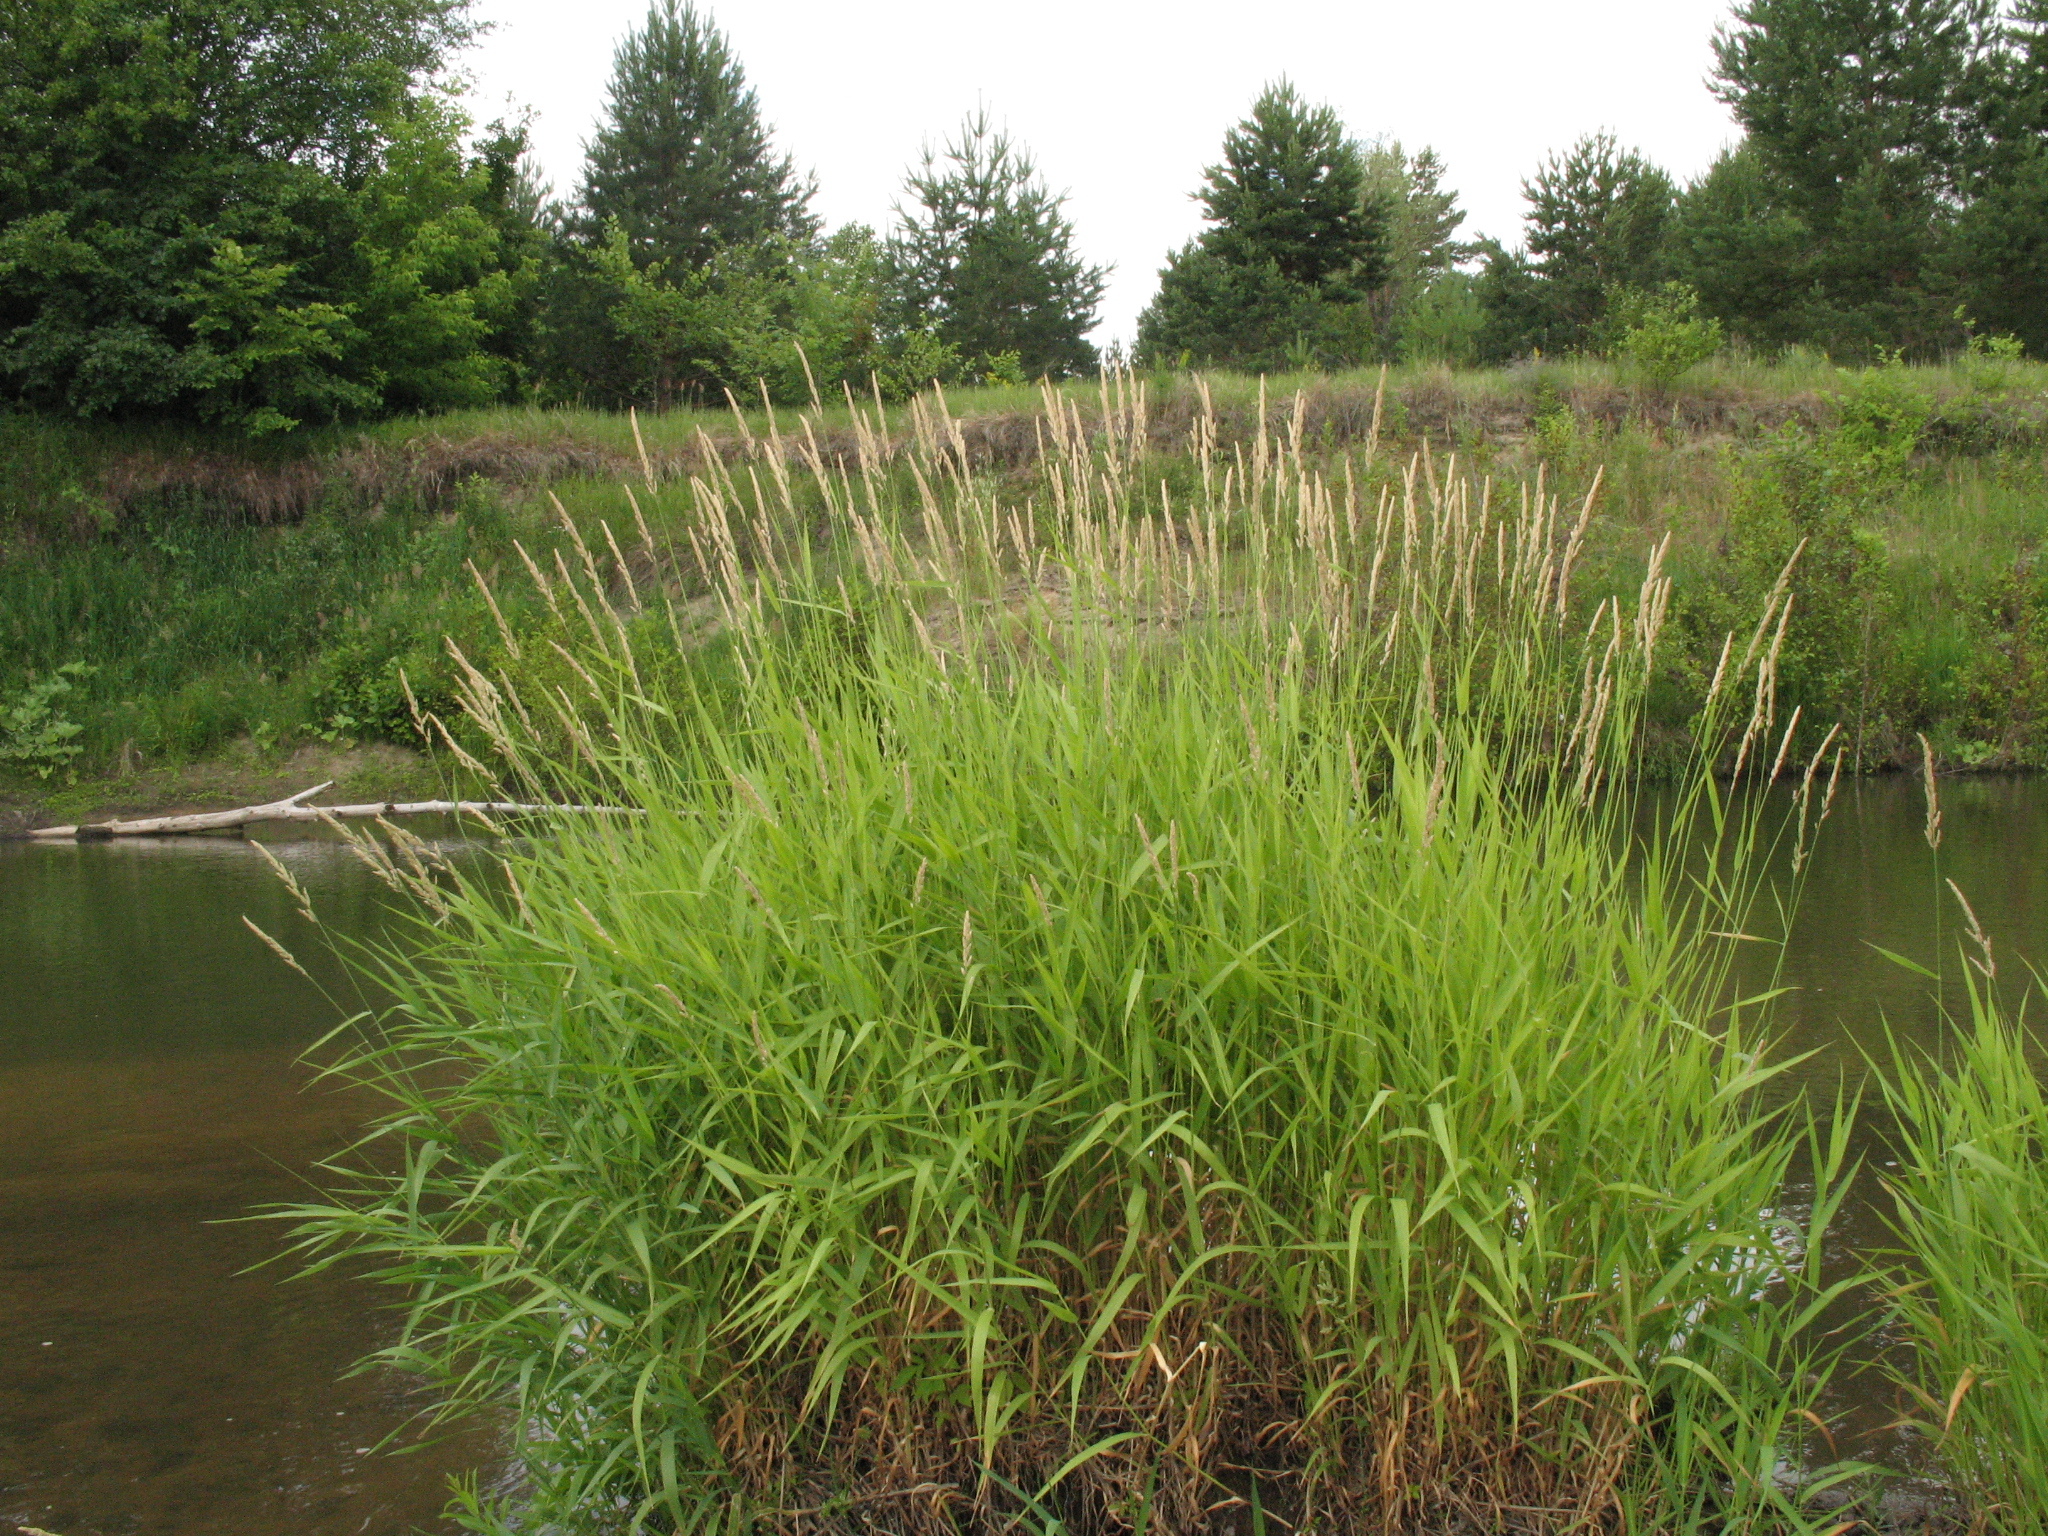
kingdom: Plantae
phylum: Tracheophyta
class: Liliopsida
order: Poales
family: Poaceae
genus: Phalaris
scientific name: Phalaris arundinacea
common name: Reed canary-grass
